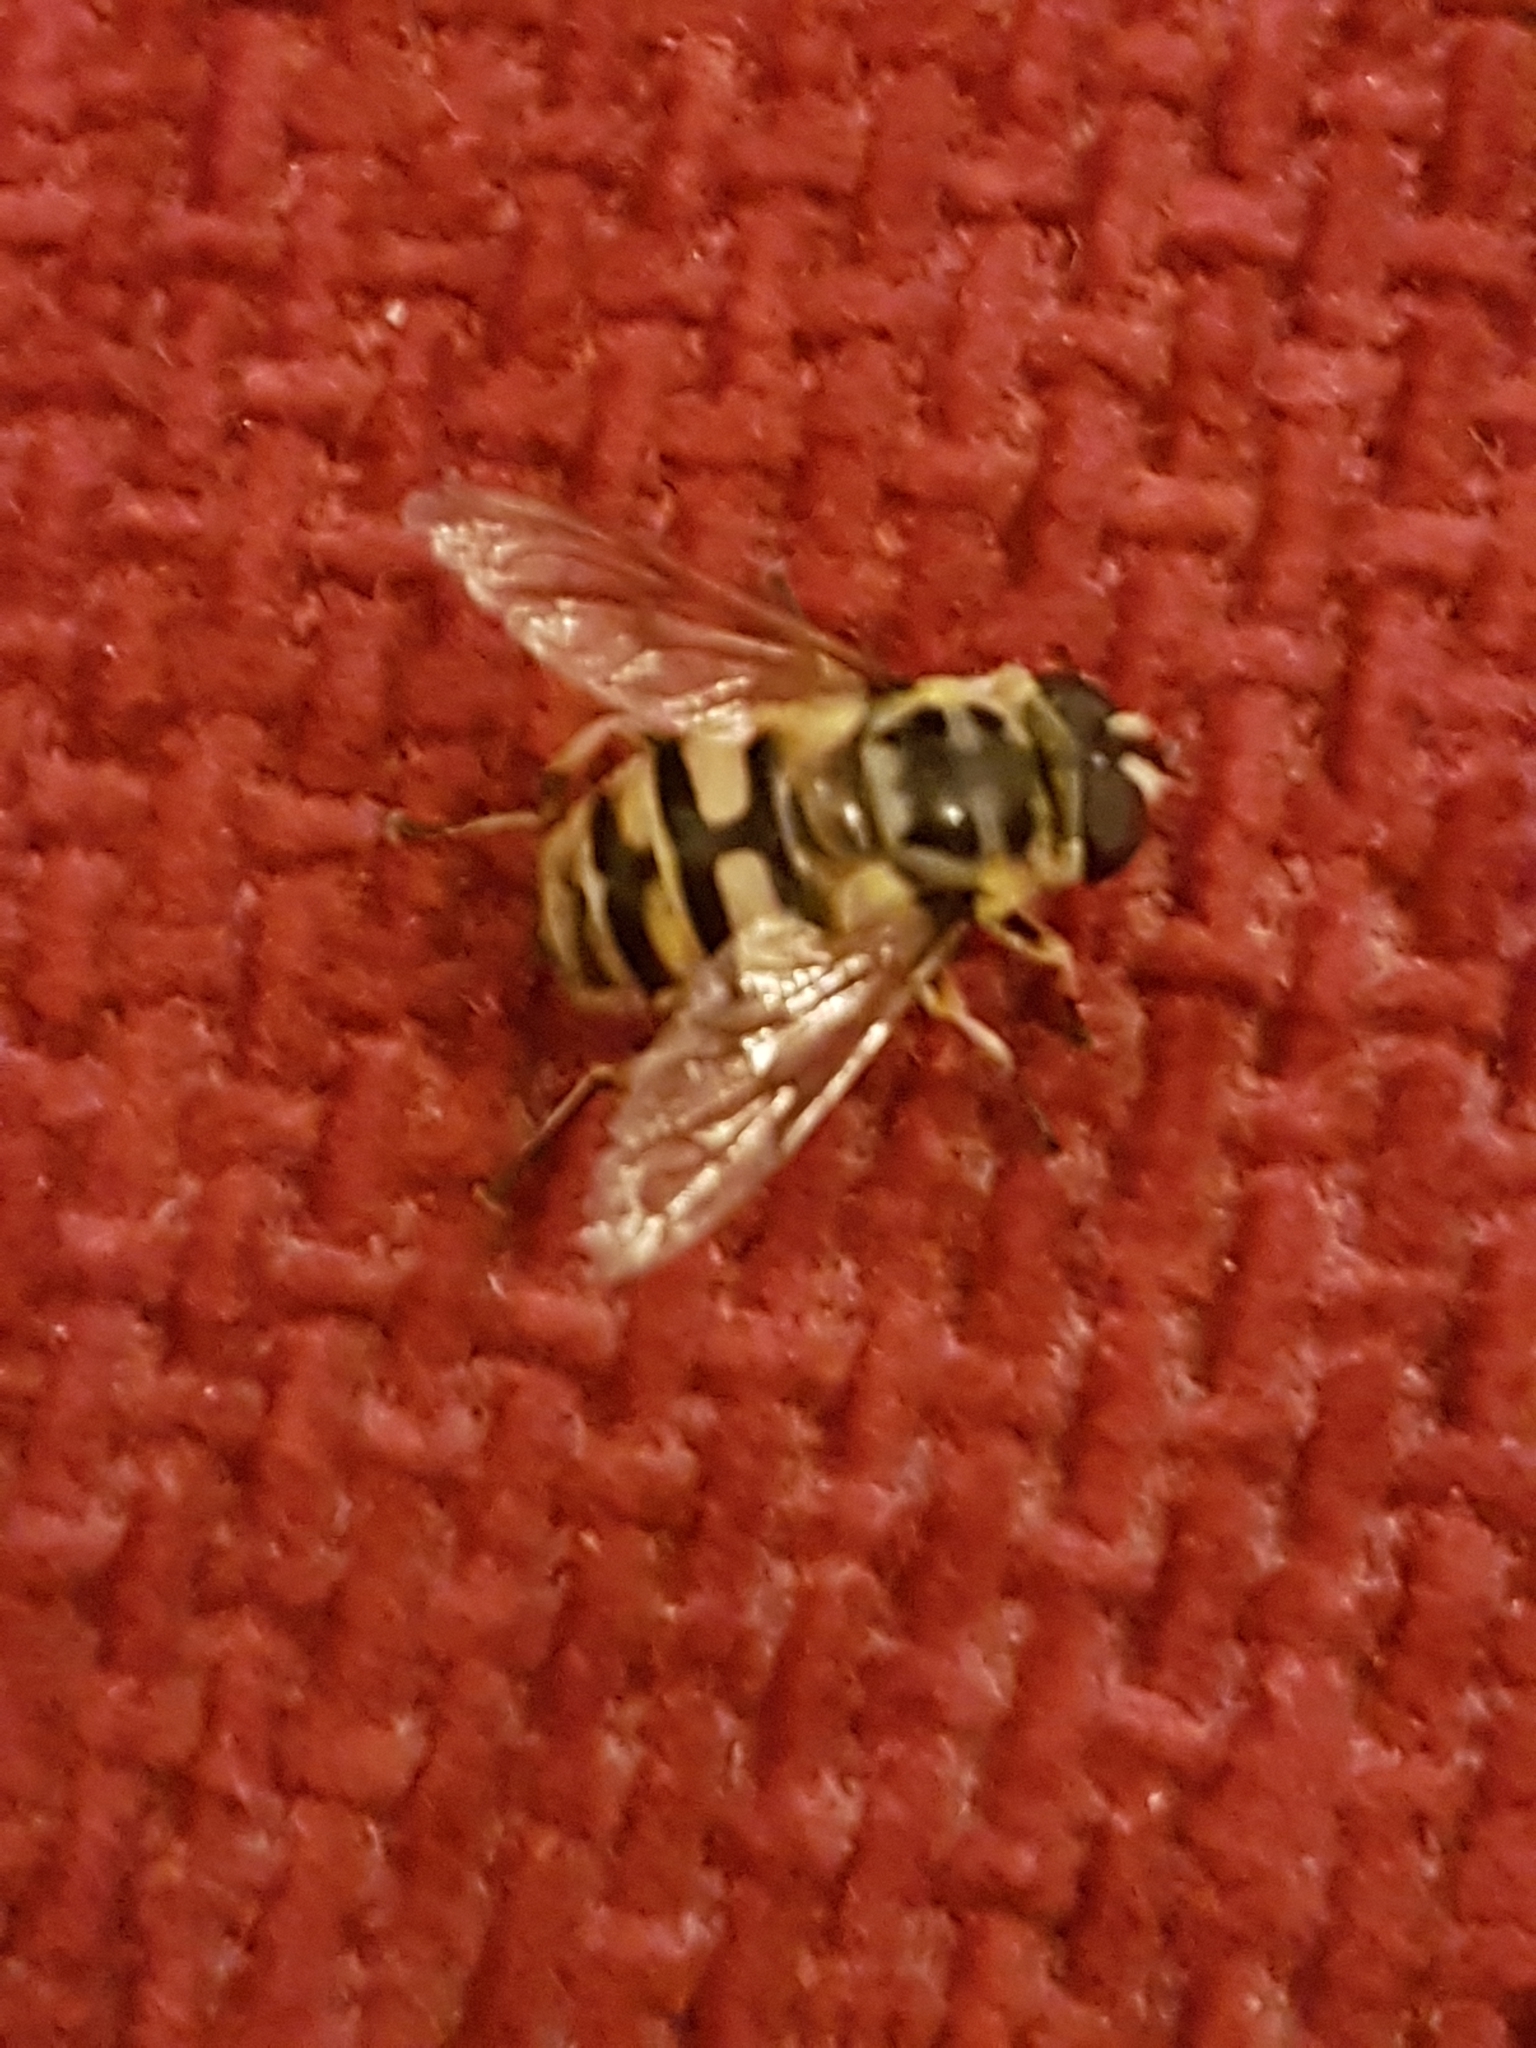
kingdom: Animalia
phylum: Arthropoda
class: Insecta
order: Diptera
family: Syrphidae
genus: Myathropa
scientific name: Myathropa florea
